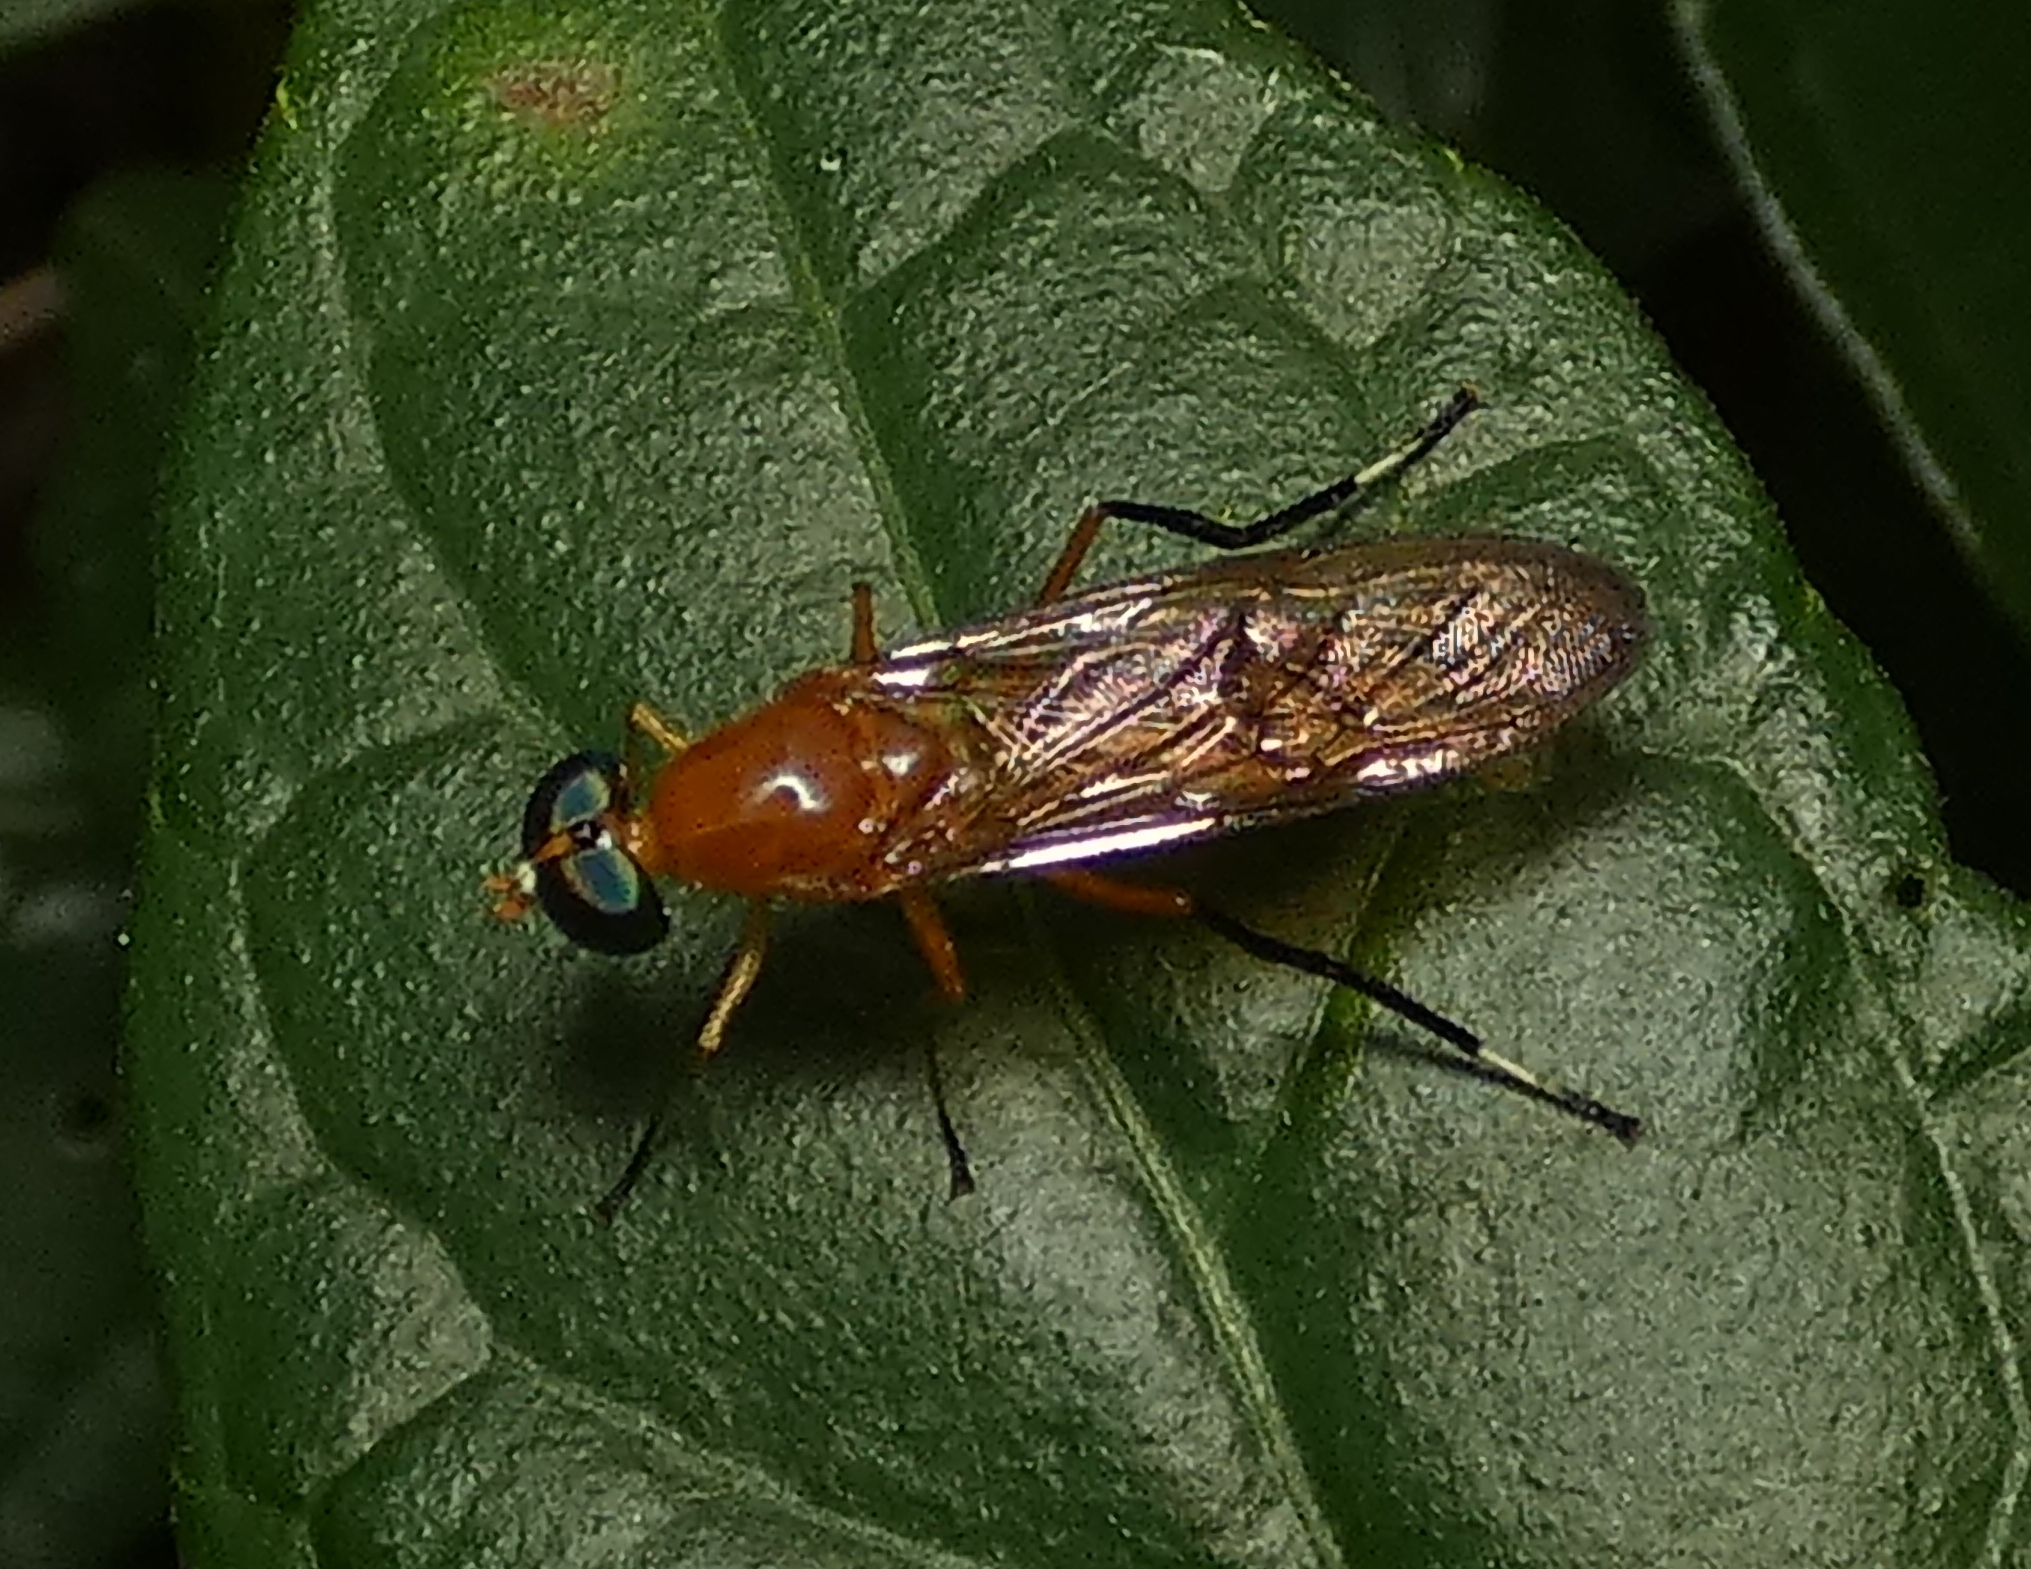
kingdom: Animalia
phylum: Arthropoda
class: Insecta
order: Diptera
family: Stratiomyidae
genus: Ptecticus
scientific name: Ptecticus testaceus
